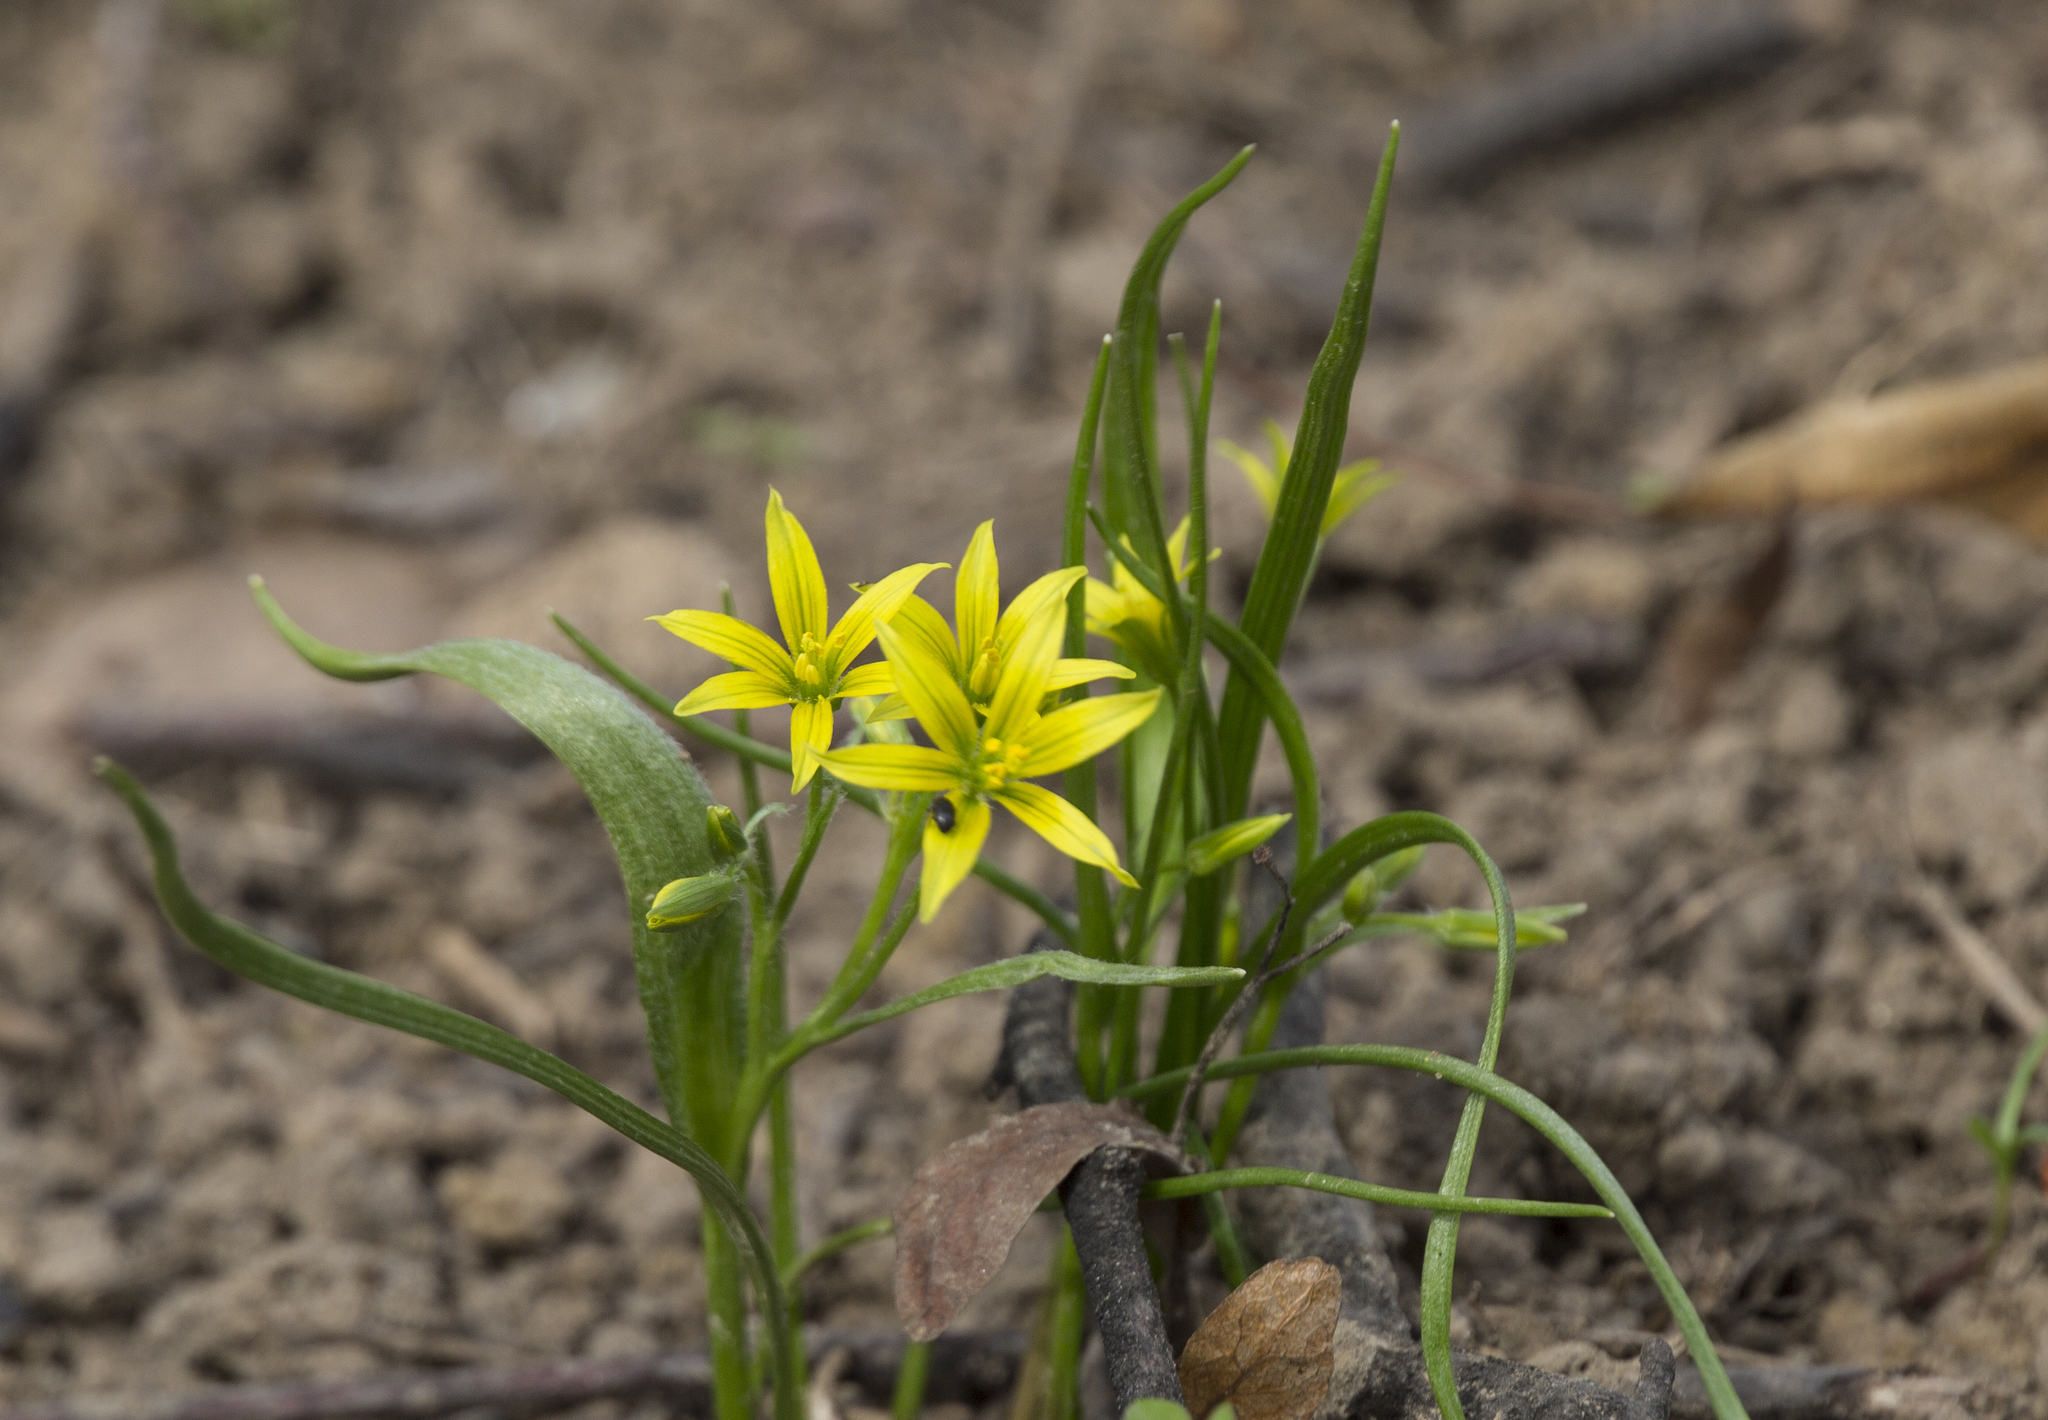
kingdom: Plantae
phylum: Tracheophyta
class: Liliopsida
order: Liliales
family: Liliaceae
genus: Gagea
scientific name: Gagea minima
